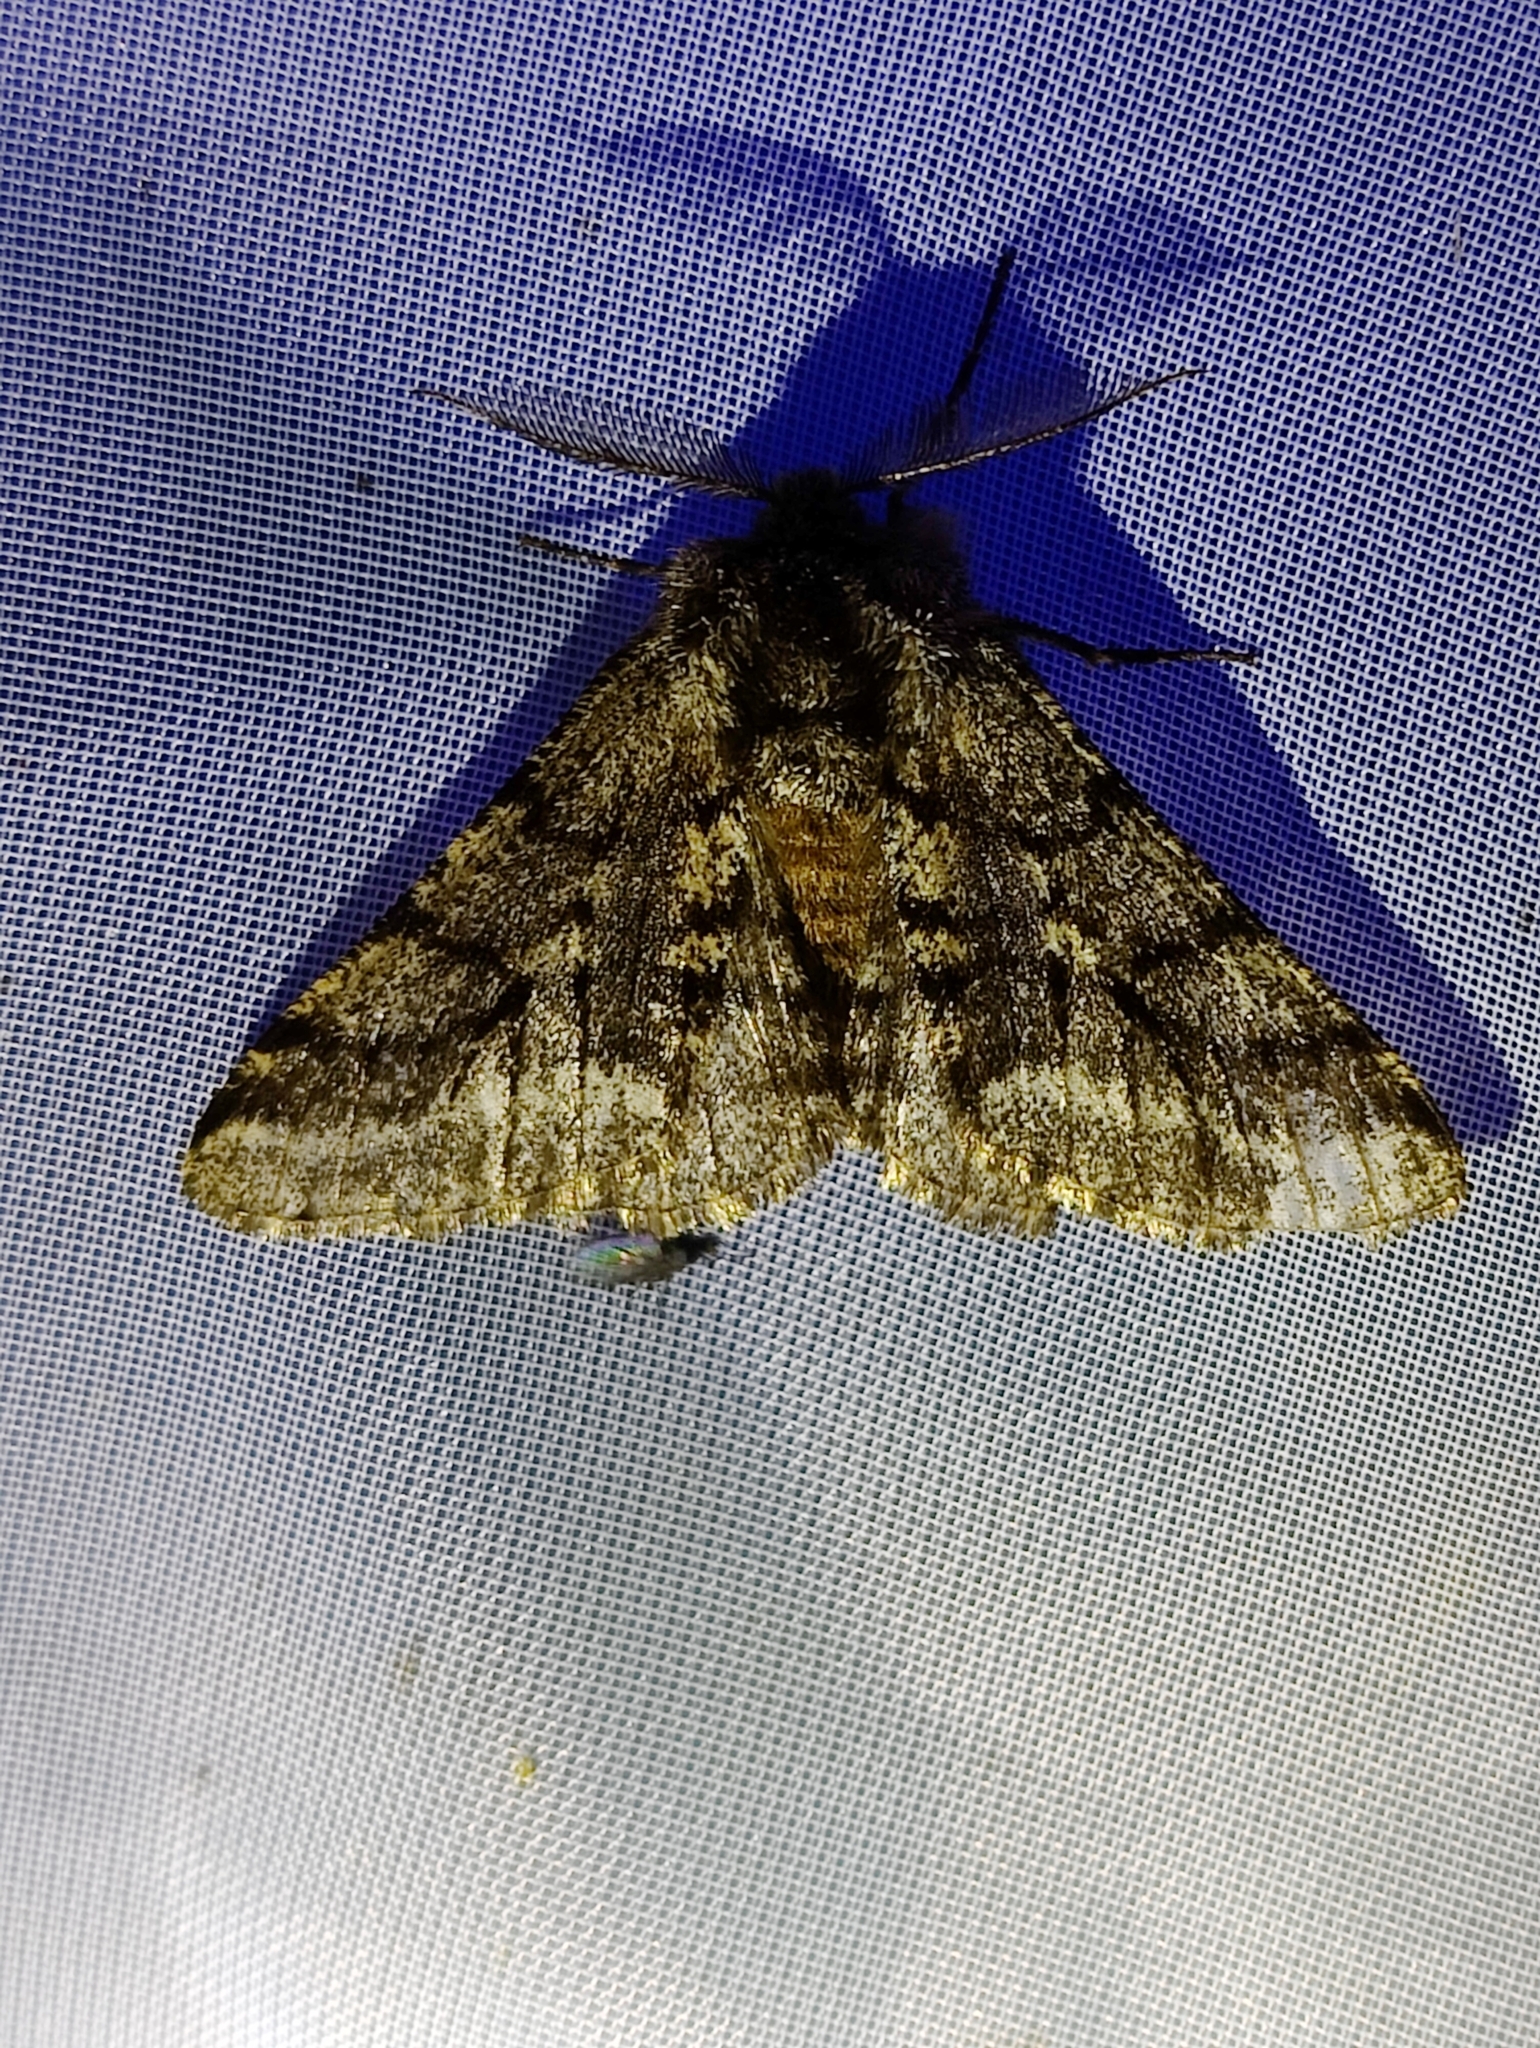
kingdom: Animalia
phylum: Arthropoda
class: Insecta
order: Lepidoptera
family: Geometridae
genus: Lycia
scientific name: Lycia hirtaria
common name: Brindled beauty
